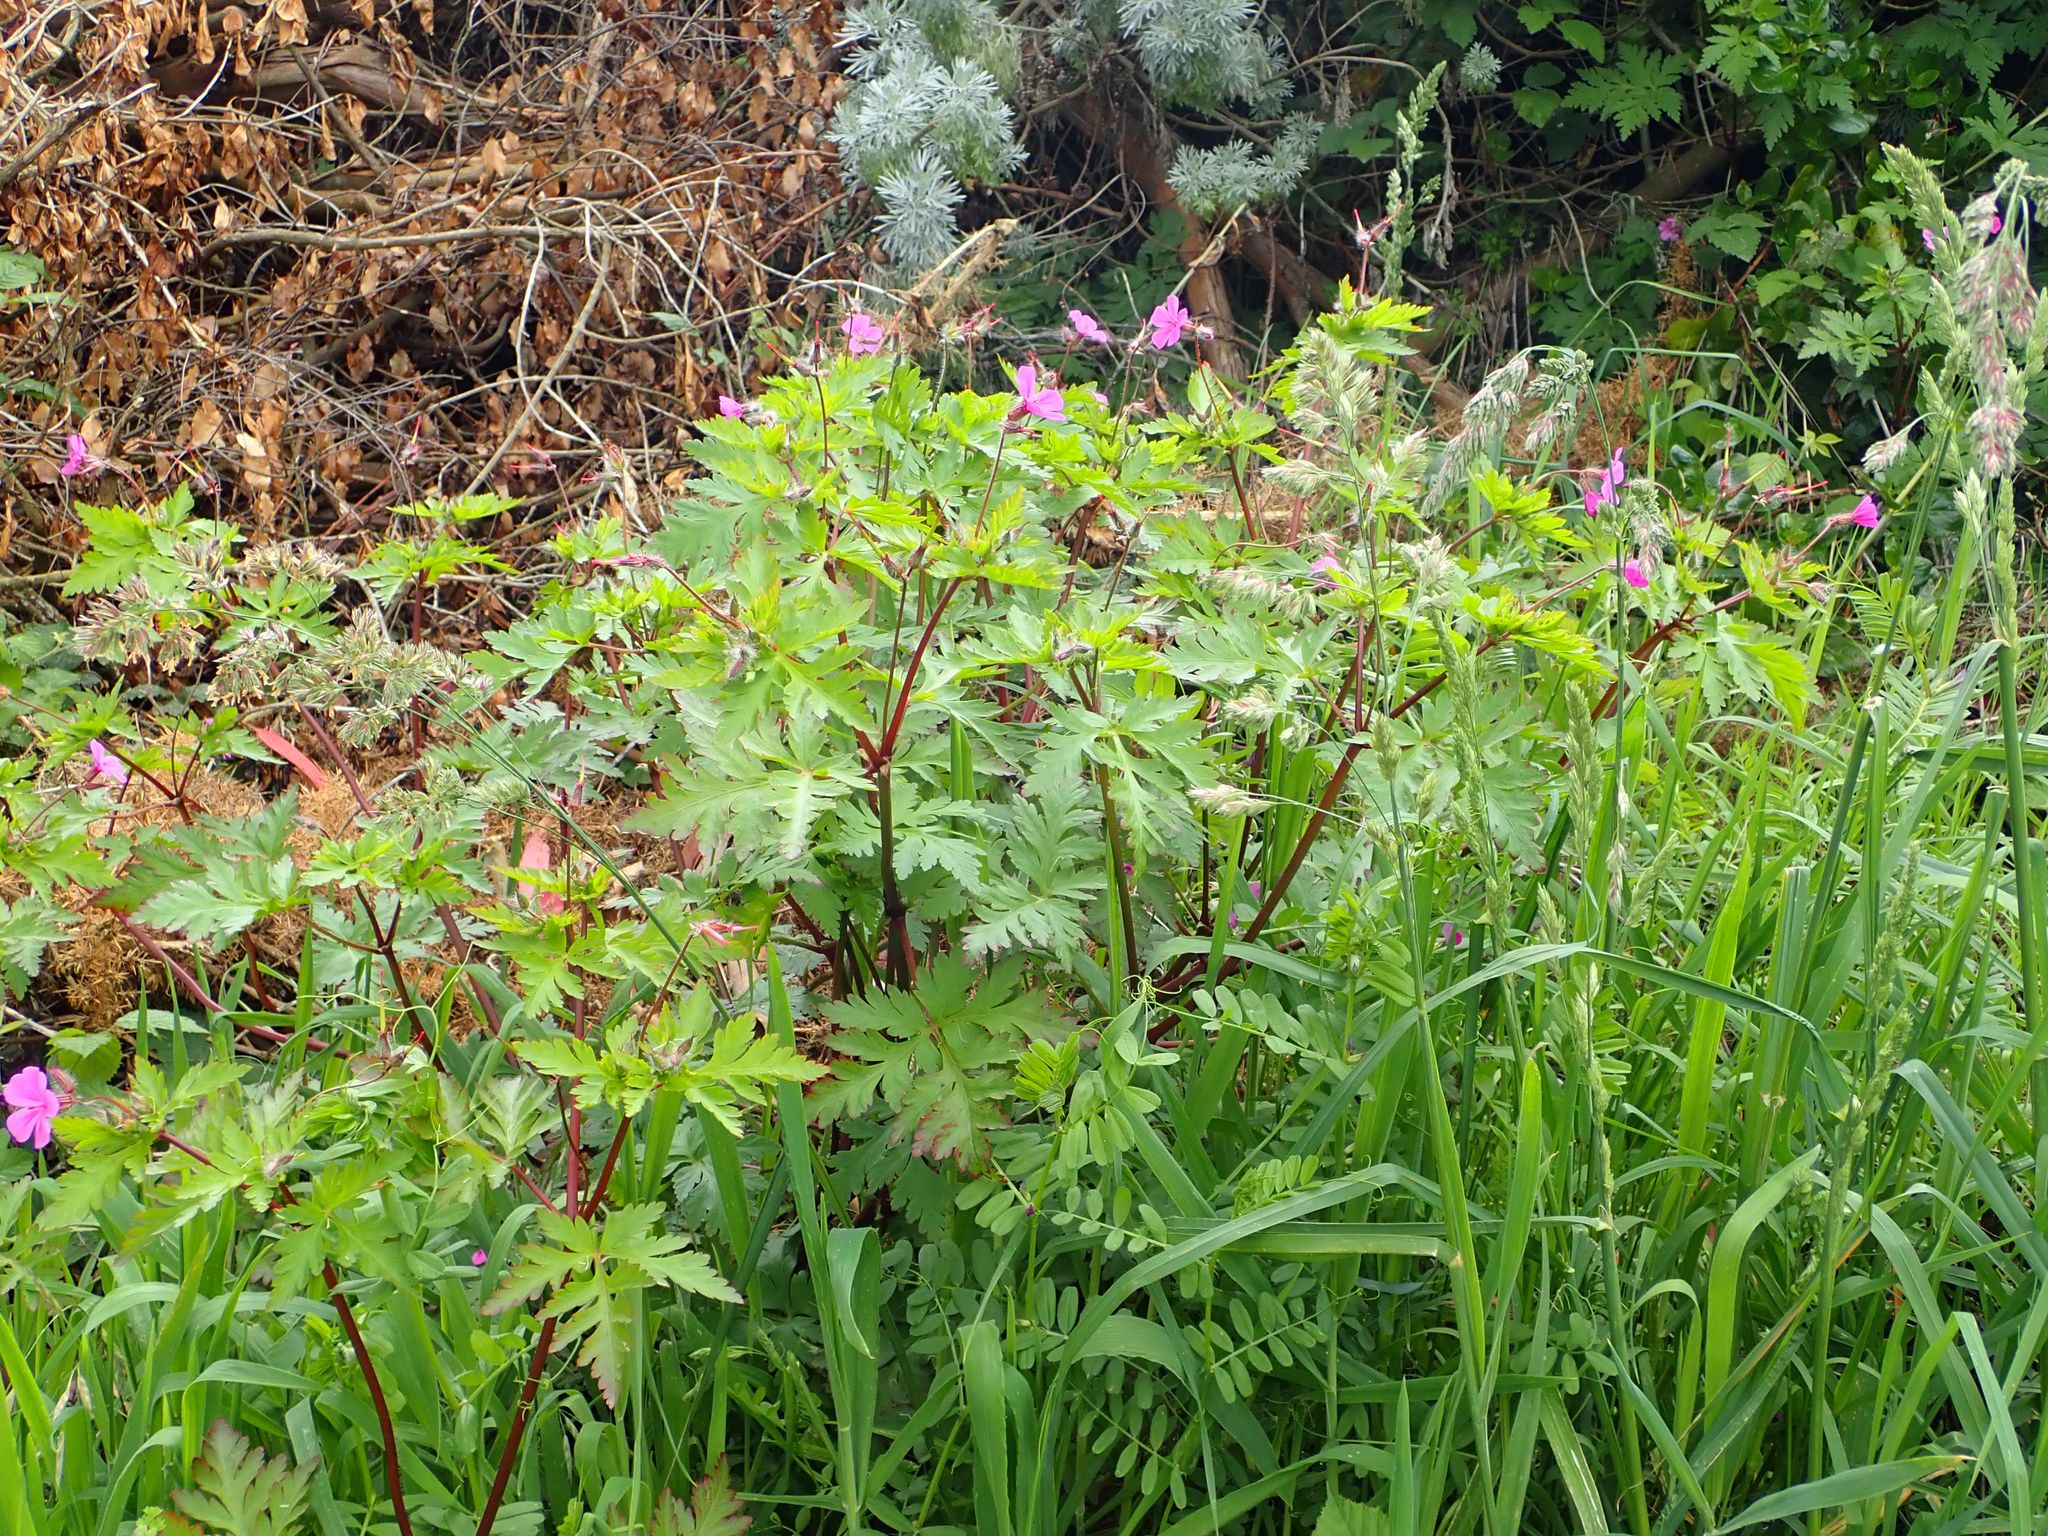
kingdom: Plantae
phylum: Tracheophyta
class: Magnoliopsida
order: Geraniales
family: Geraniaceae
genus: Geranium
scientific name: Geranium maderense
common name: Giant herb-robert
